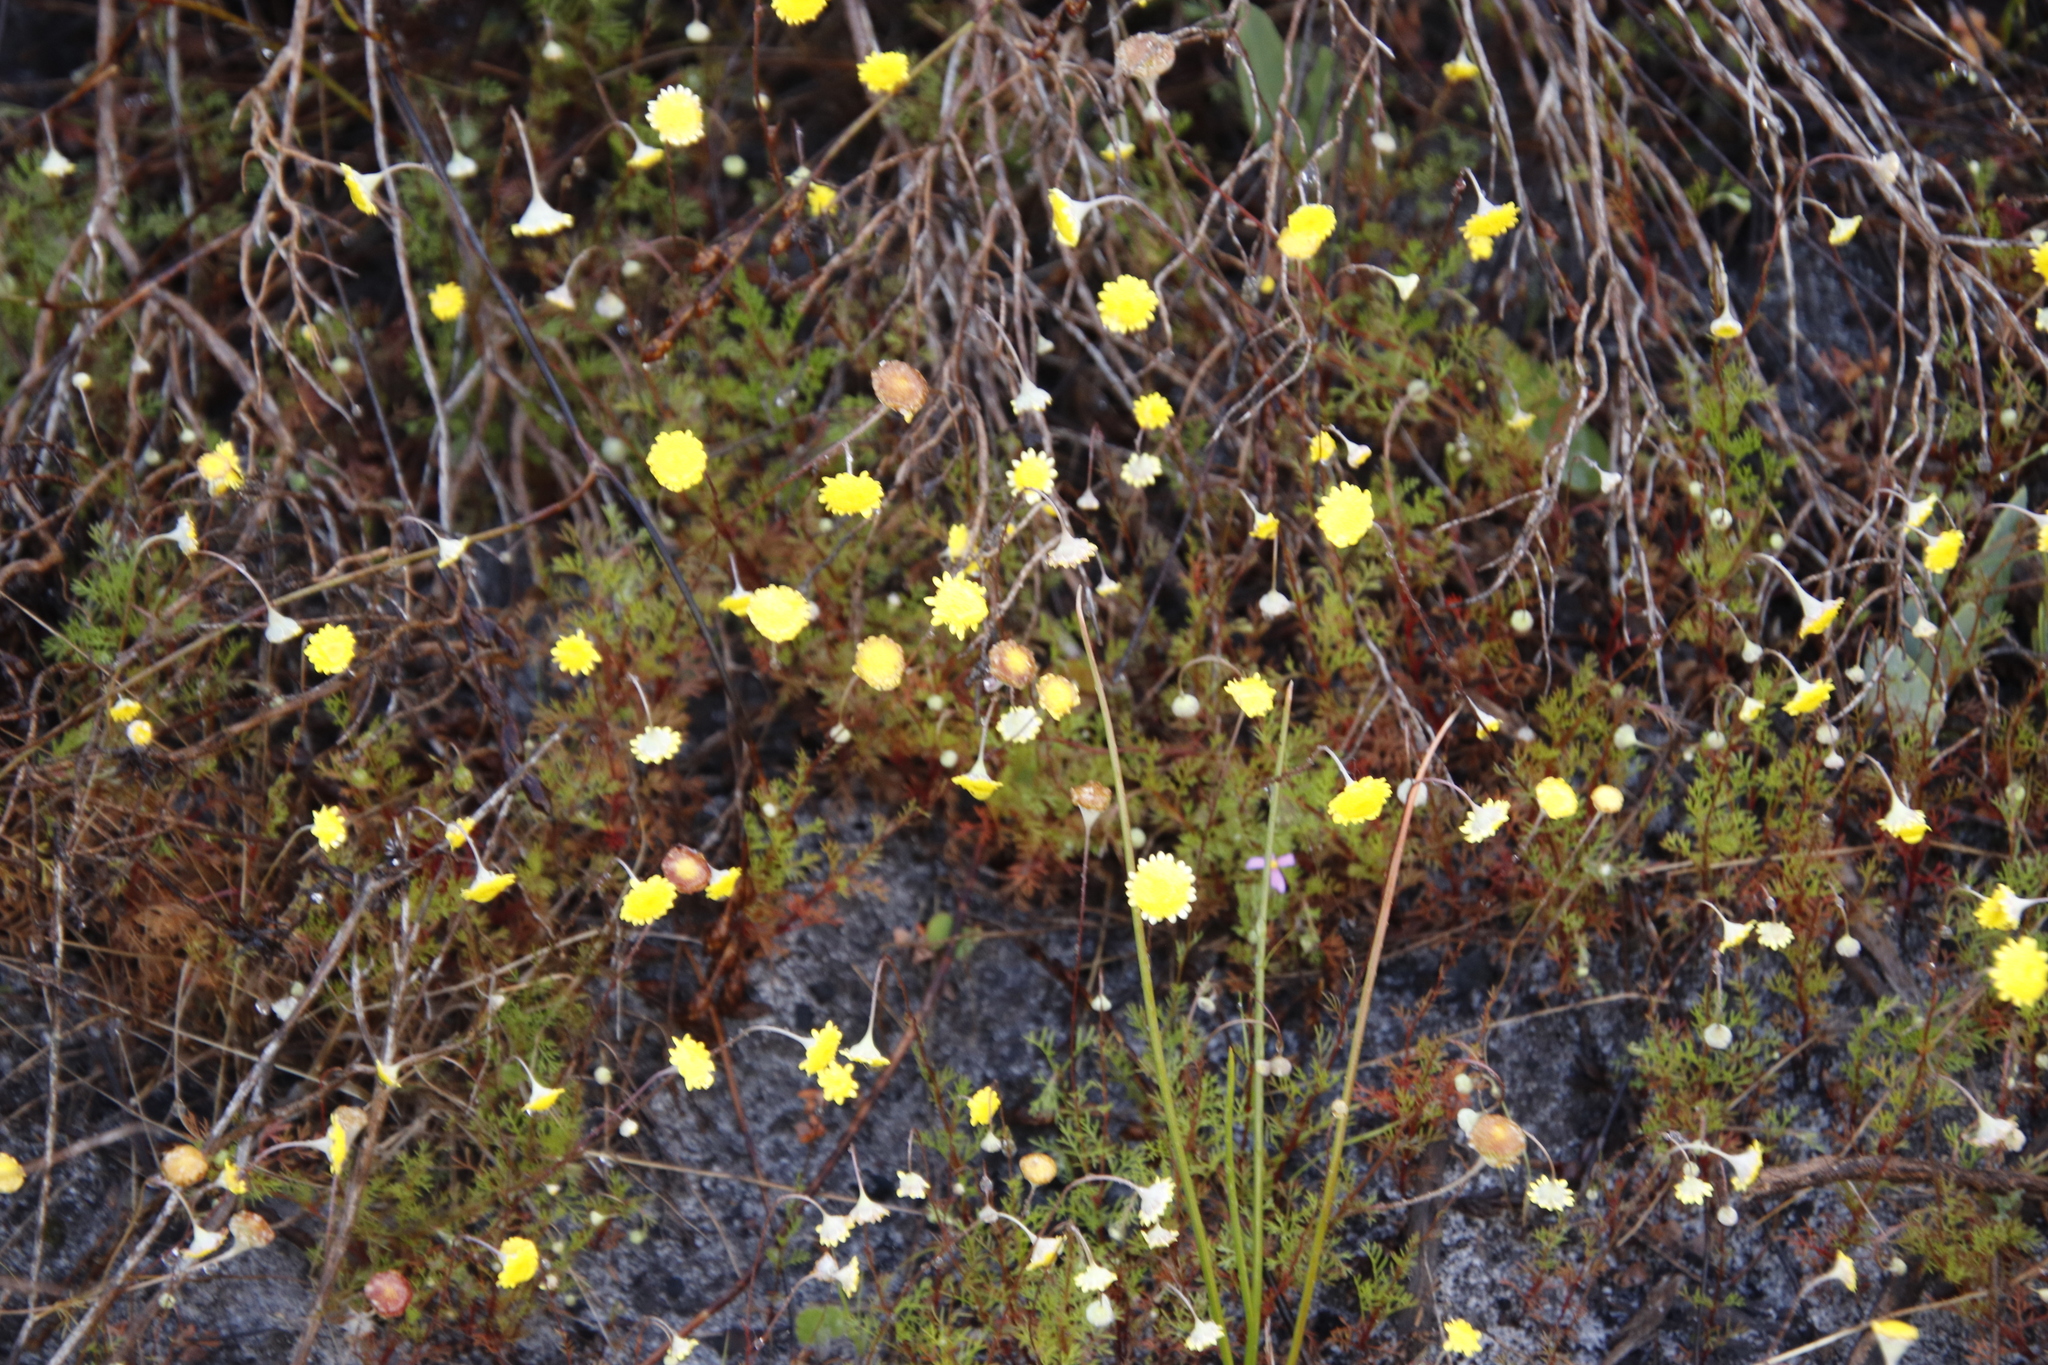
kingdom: Plantae
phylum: Tracheophyta
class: Magnoliopsida
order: Asterales
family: Asteraceae
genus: Cotula
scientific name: Cotula pruinosa
